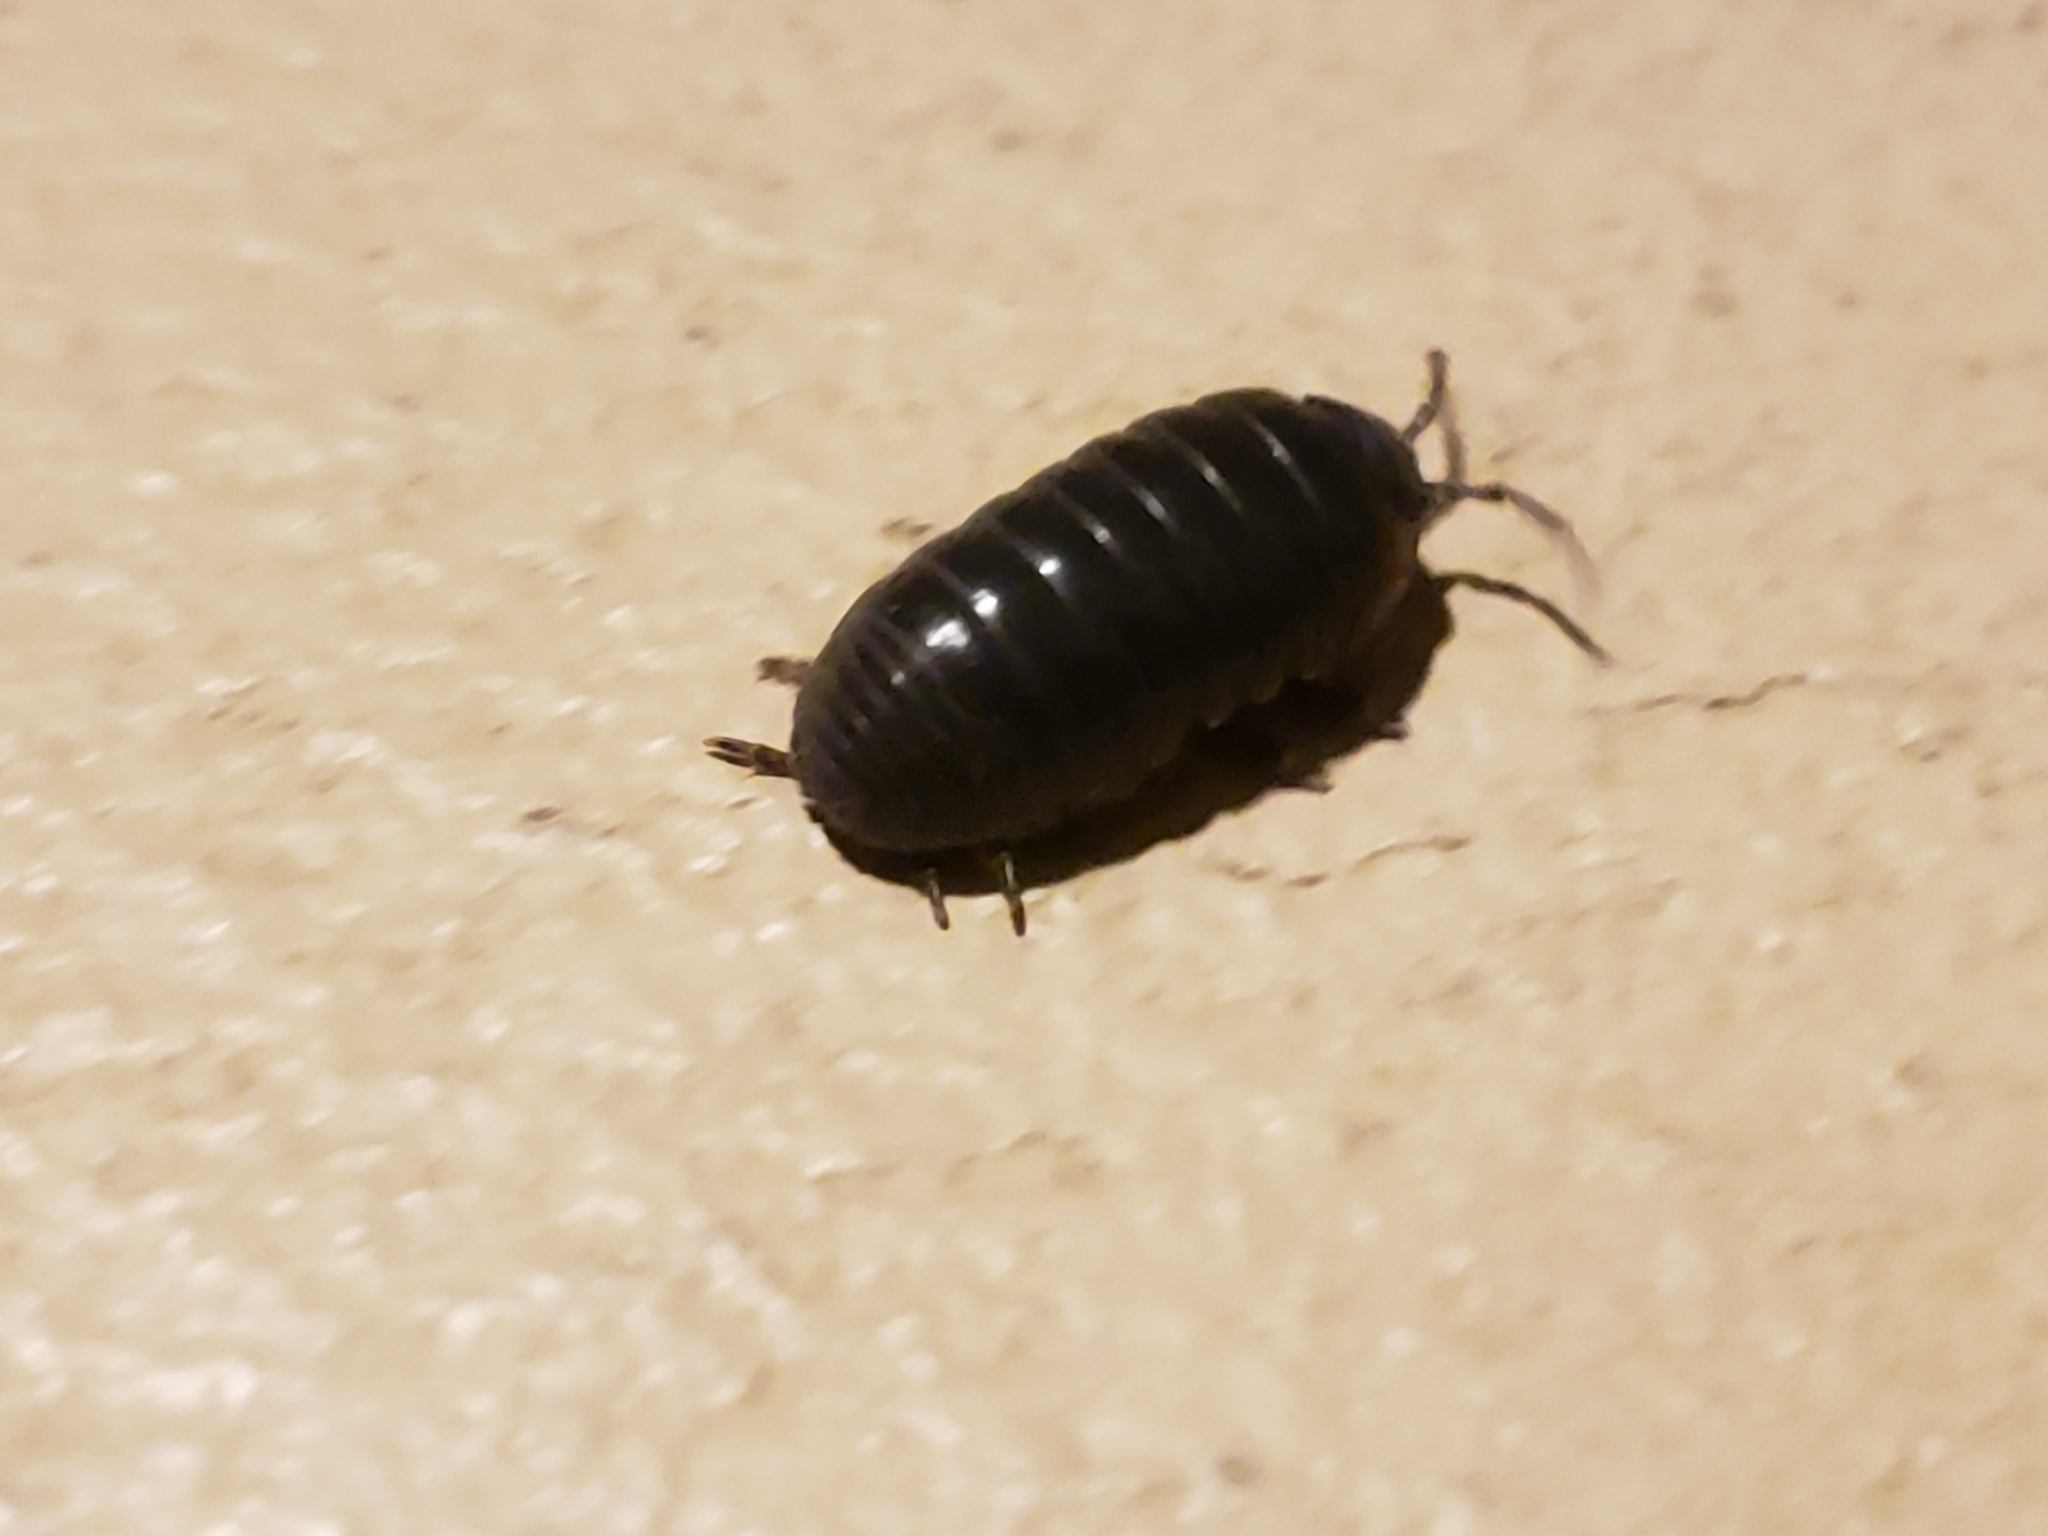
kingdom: Animalia
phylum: Arthropoda
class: Malacostraca
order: Isopoda
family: Armadillidiidae
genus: Armadillidium
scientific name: Armadillidium vulgare
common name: Common pill woodlouse
